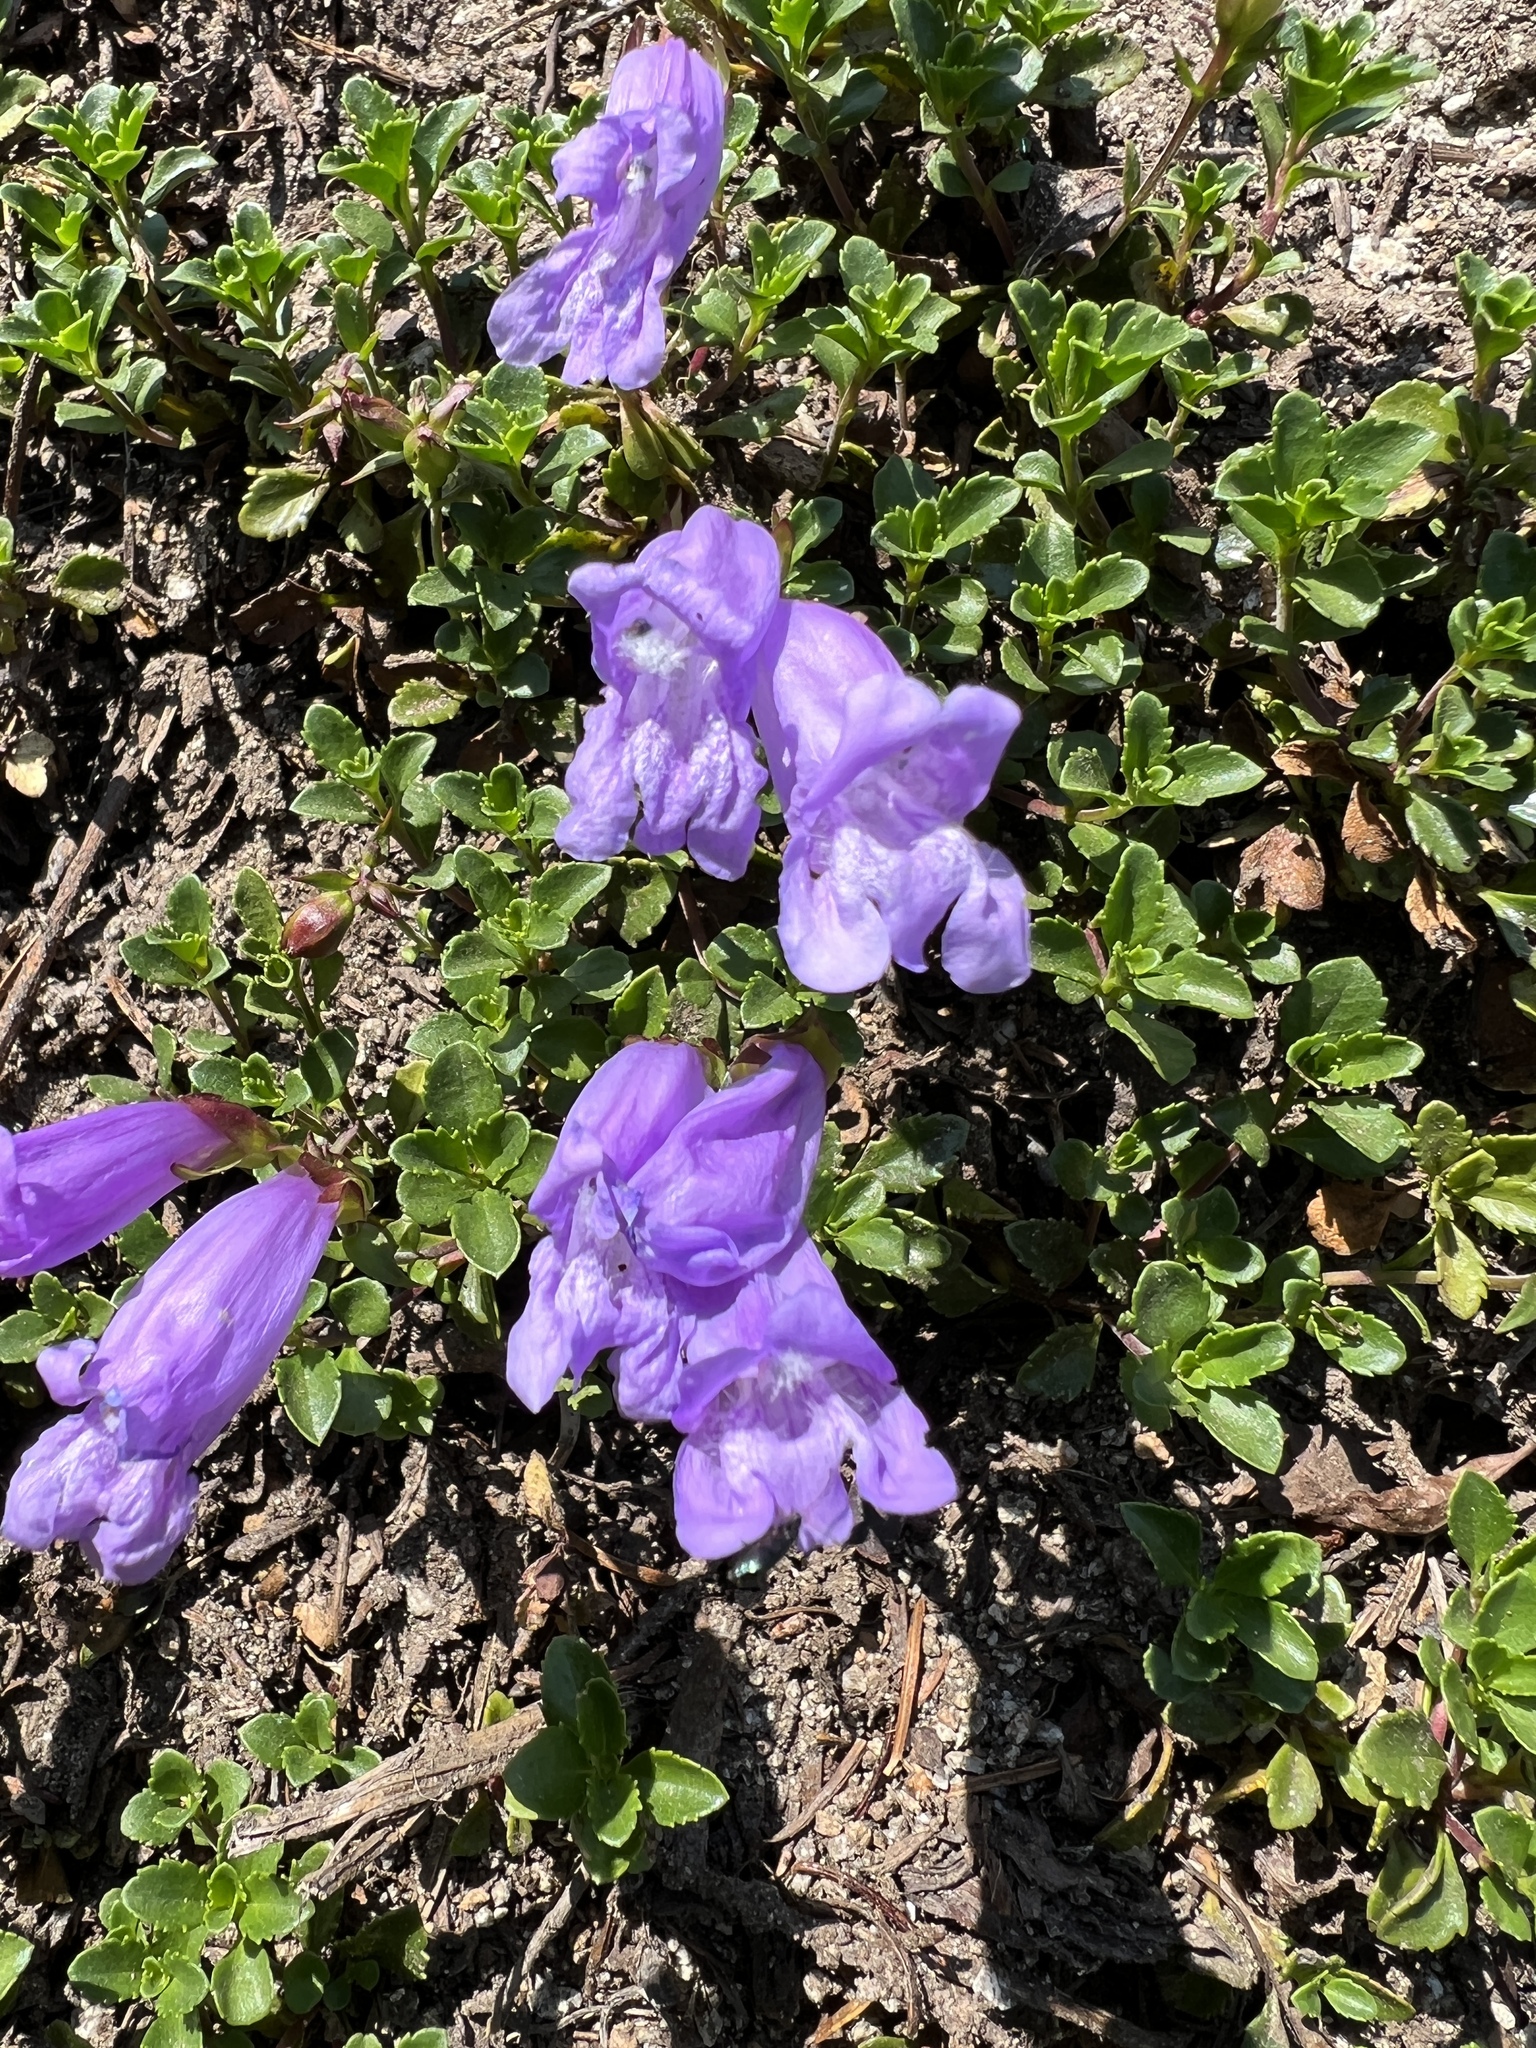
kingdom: Plantae
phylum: Tracheophyta
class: Magnoliopsida
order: Lamiales
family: Plantaginaceae
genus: Penstemon
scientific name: Penstemon davidsonii
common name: Davidson's penstemon
